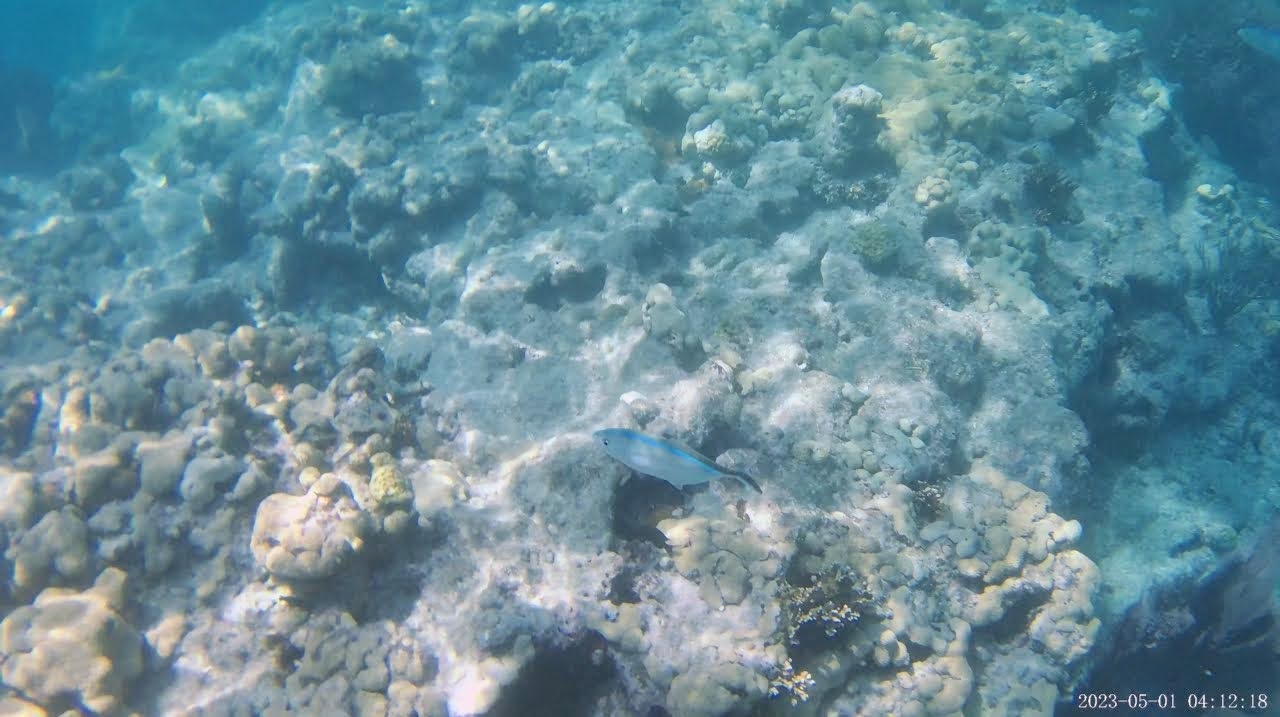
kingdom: Animalia
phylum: Chordata
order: Perciformes
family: Carangidae
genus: Caranx
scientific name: Caranx ruber
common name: Bar jack
